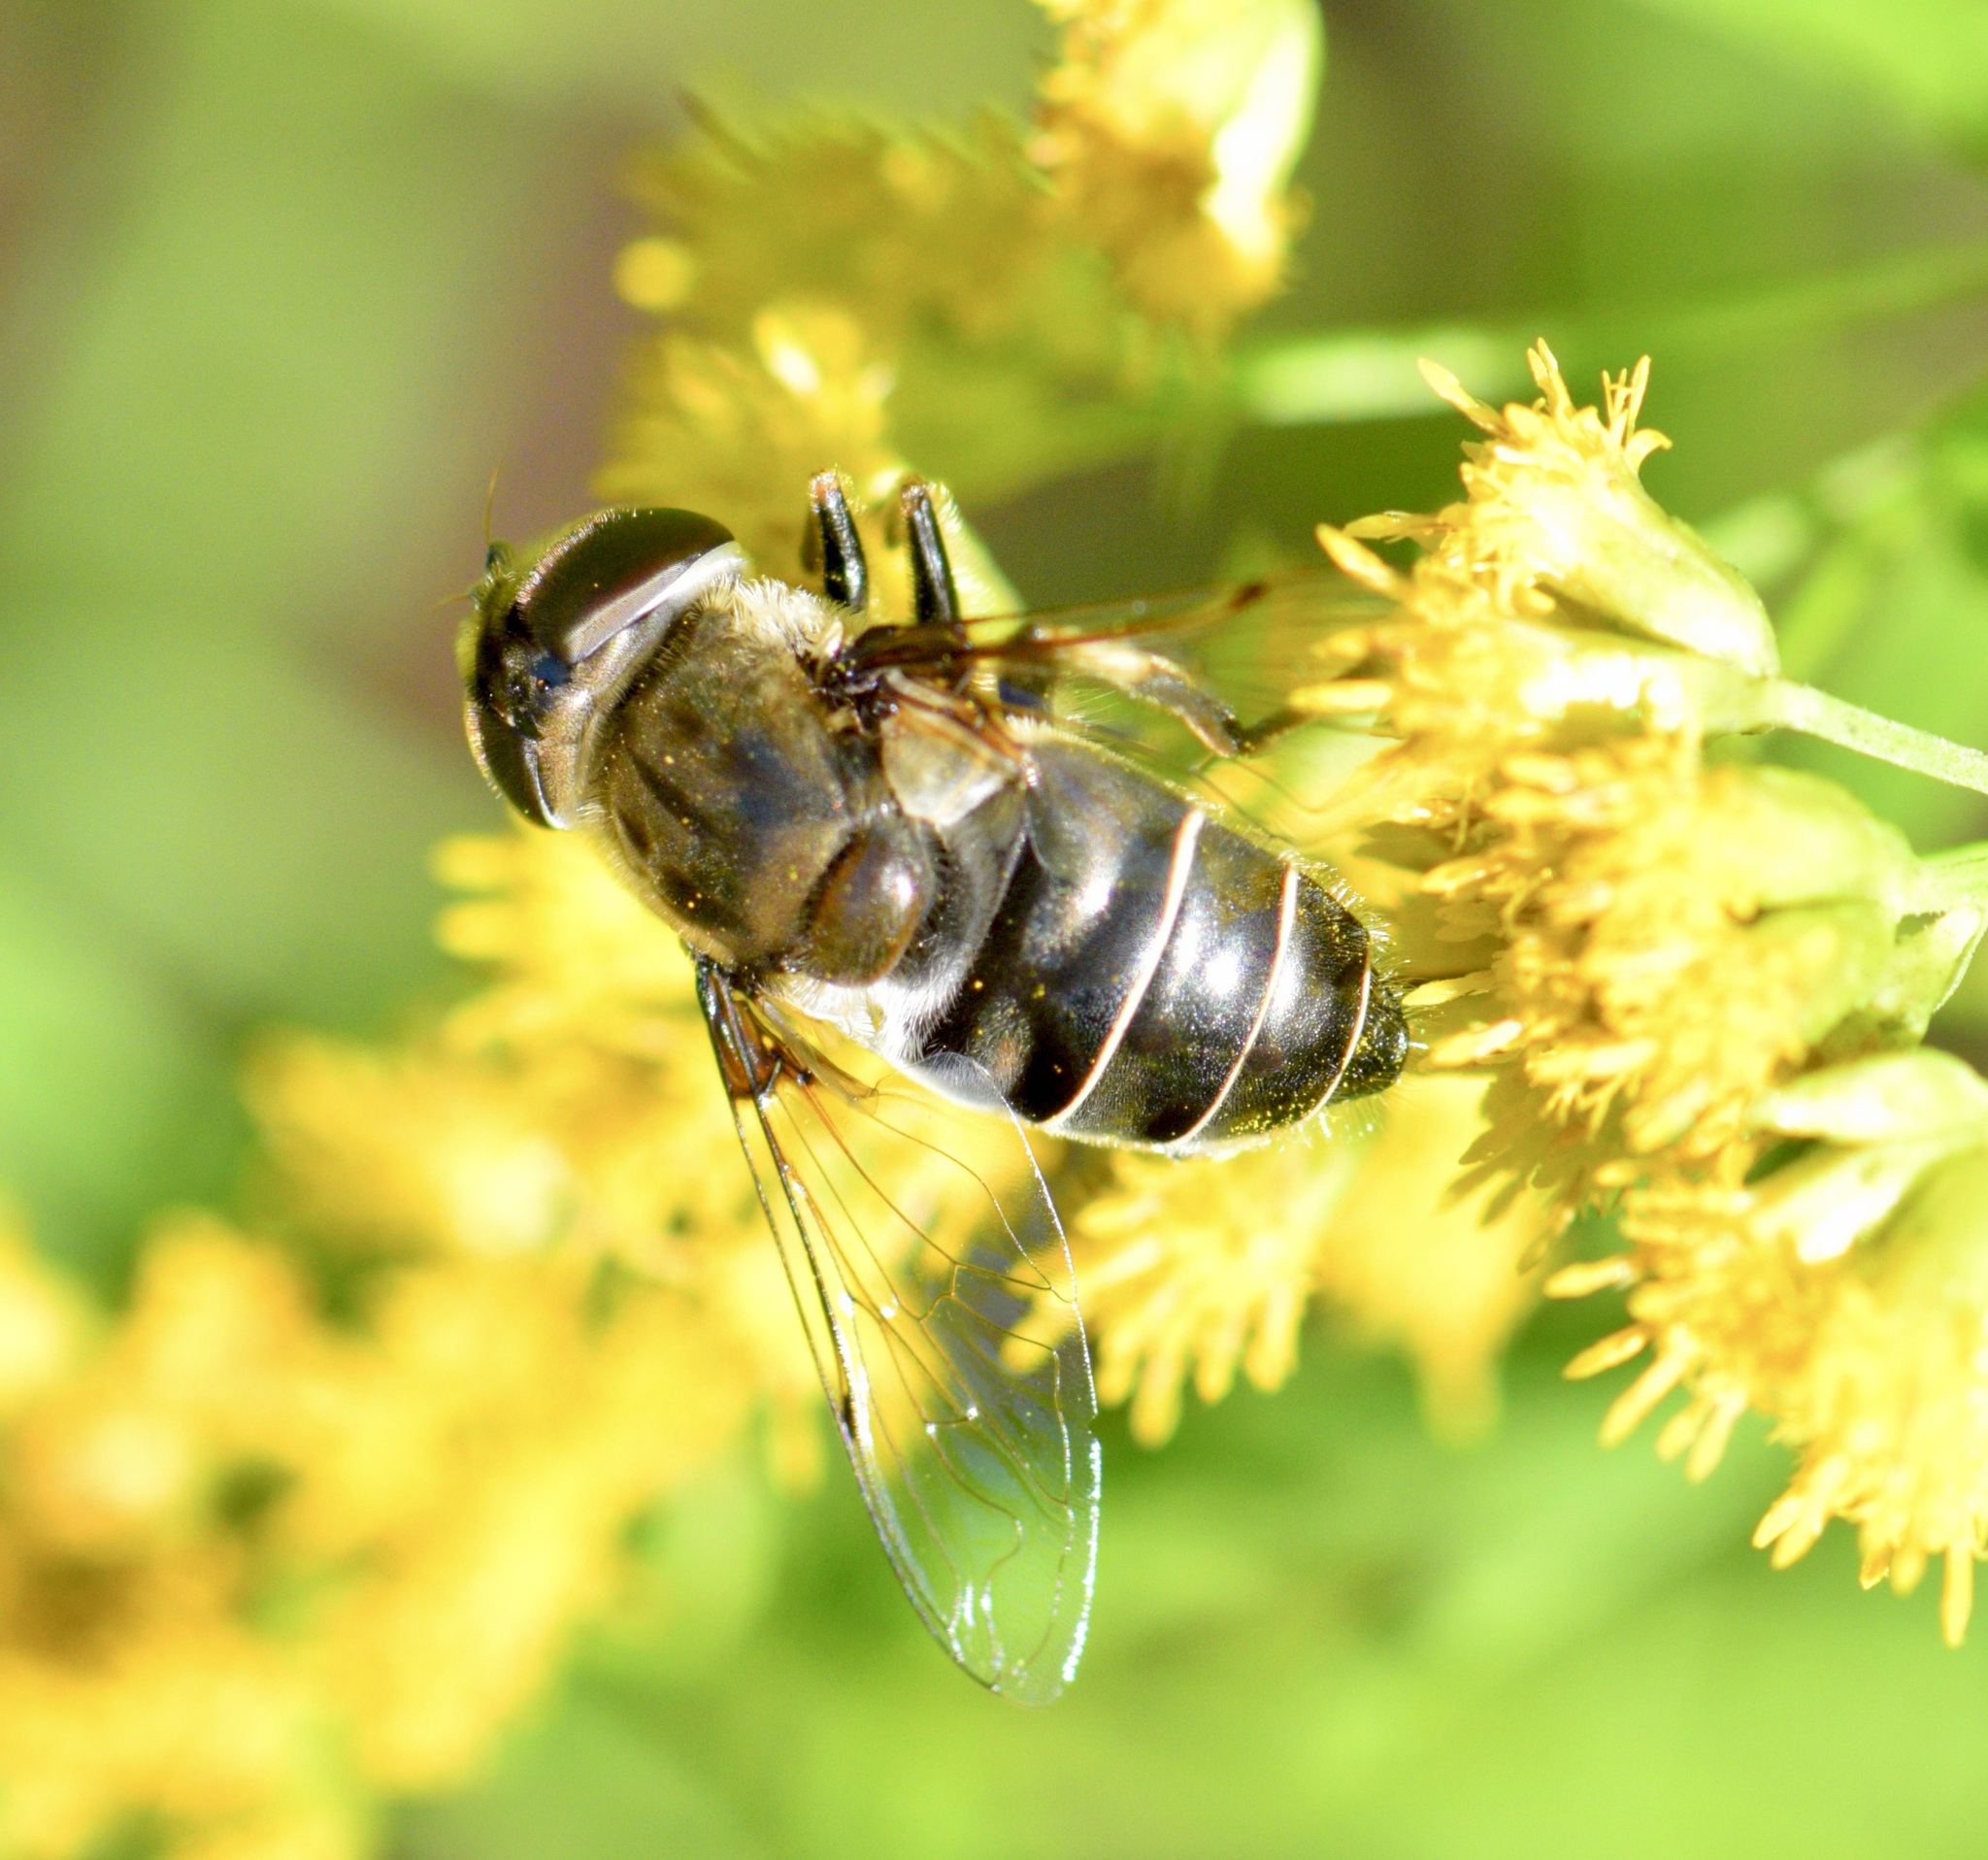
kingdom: Animalia
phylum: Arthropoda
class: Insecta
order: Diptera
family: Syrphidae
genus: Eristalis
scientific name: Eristalis dimidiata
